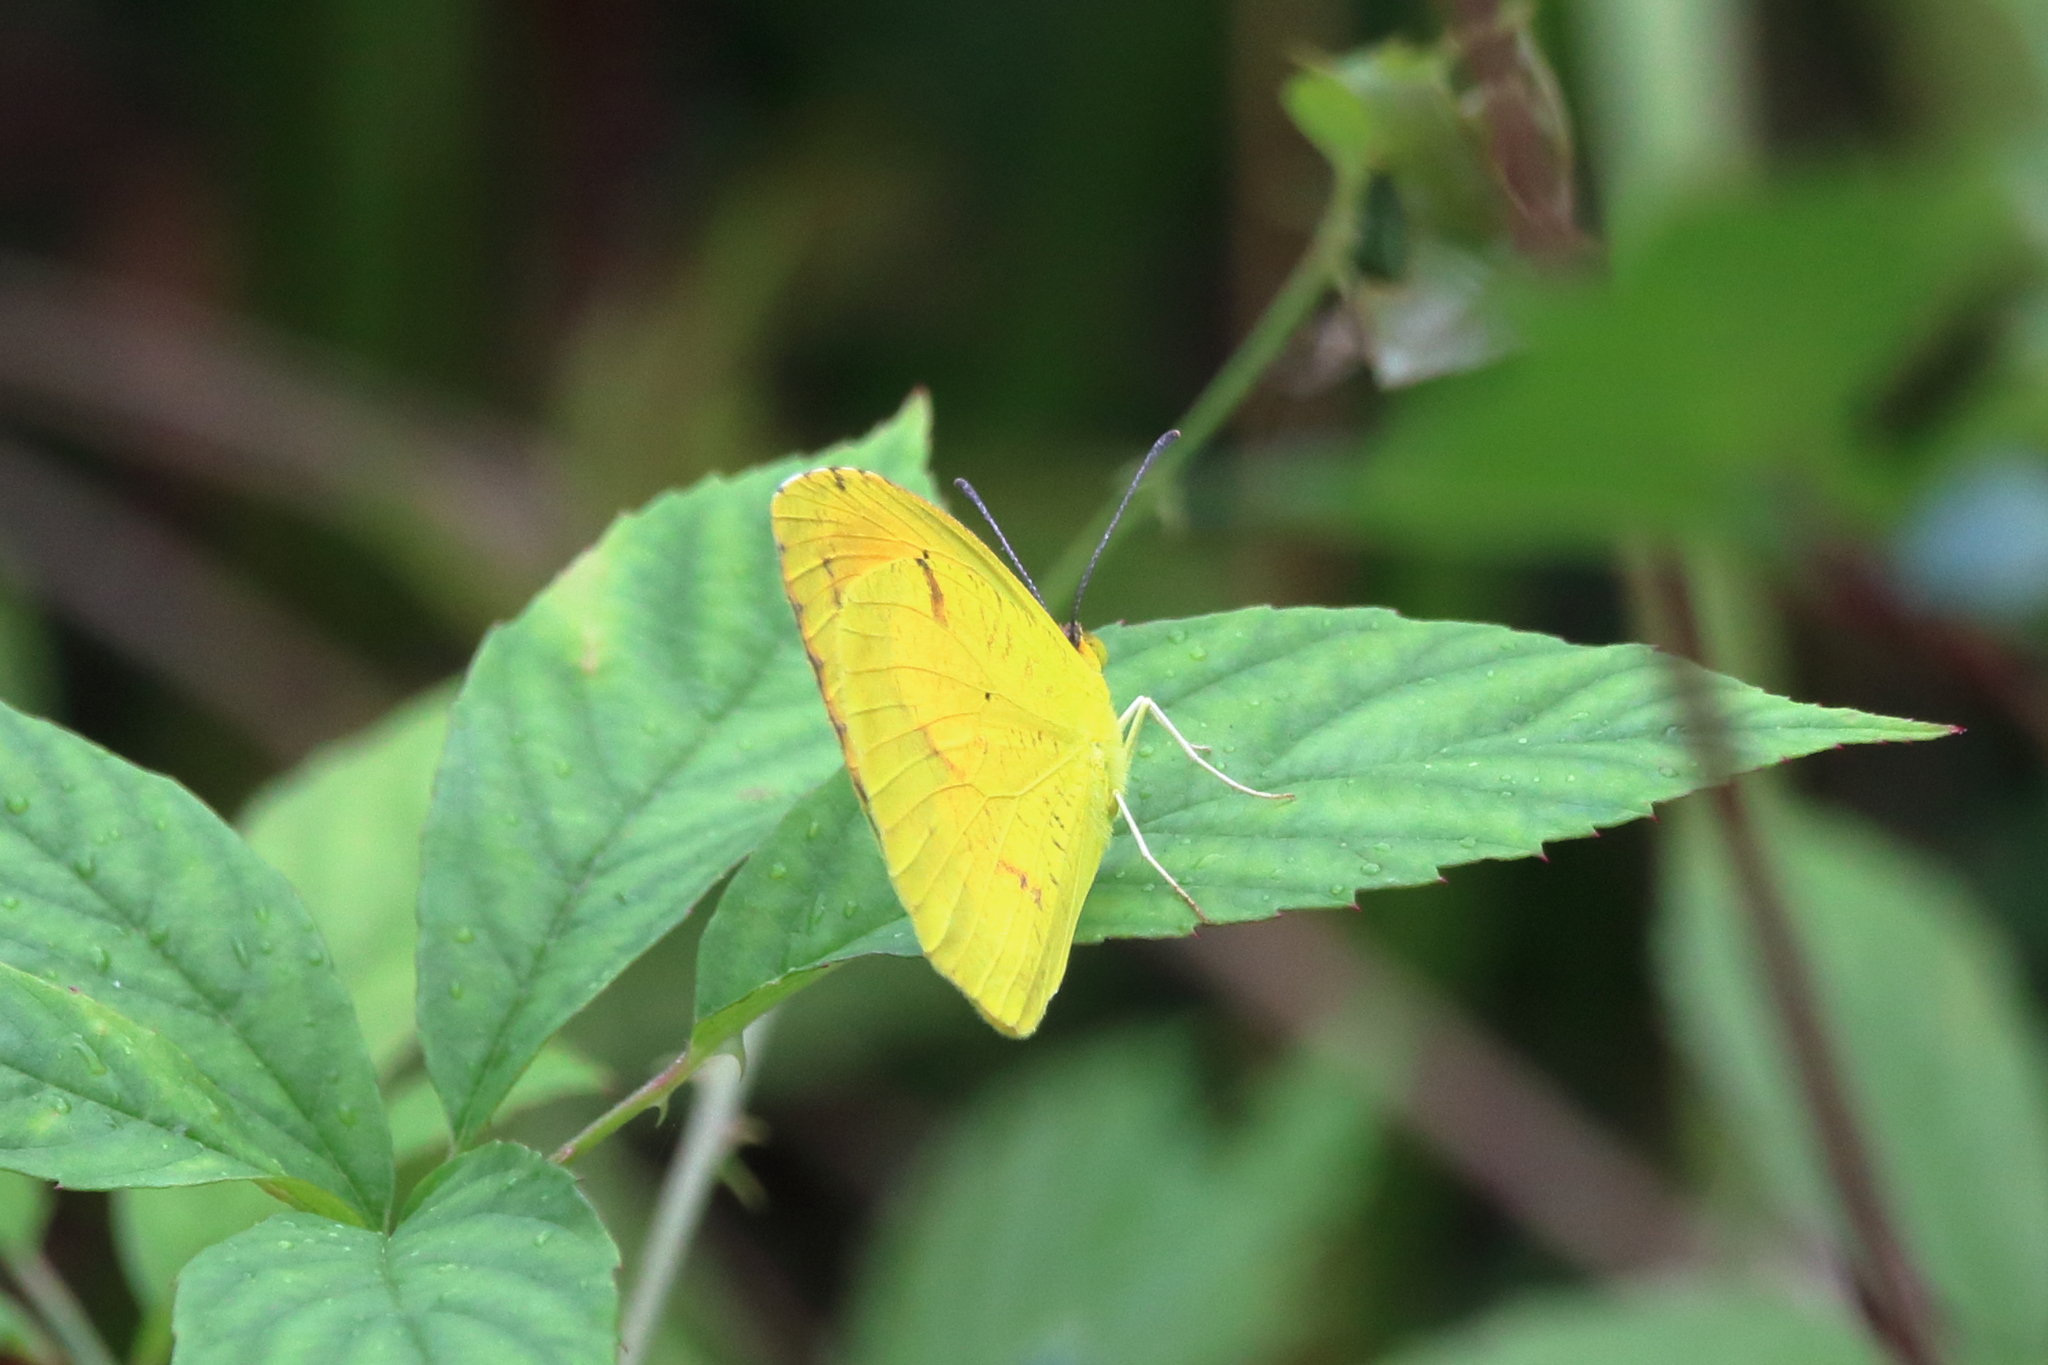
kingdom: Animalia
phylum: Arthropoda
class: Insecta
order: Lepidoptera
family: Pieridae
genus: Abaeis
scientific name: Abaeis nicippe
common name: Sleepy orange
